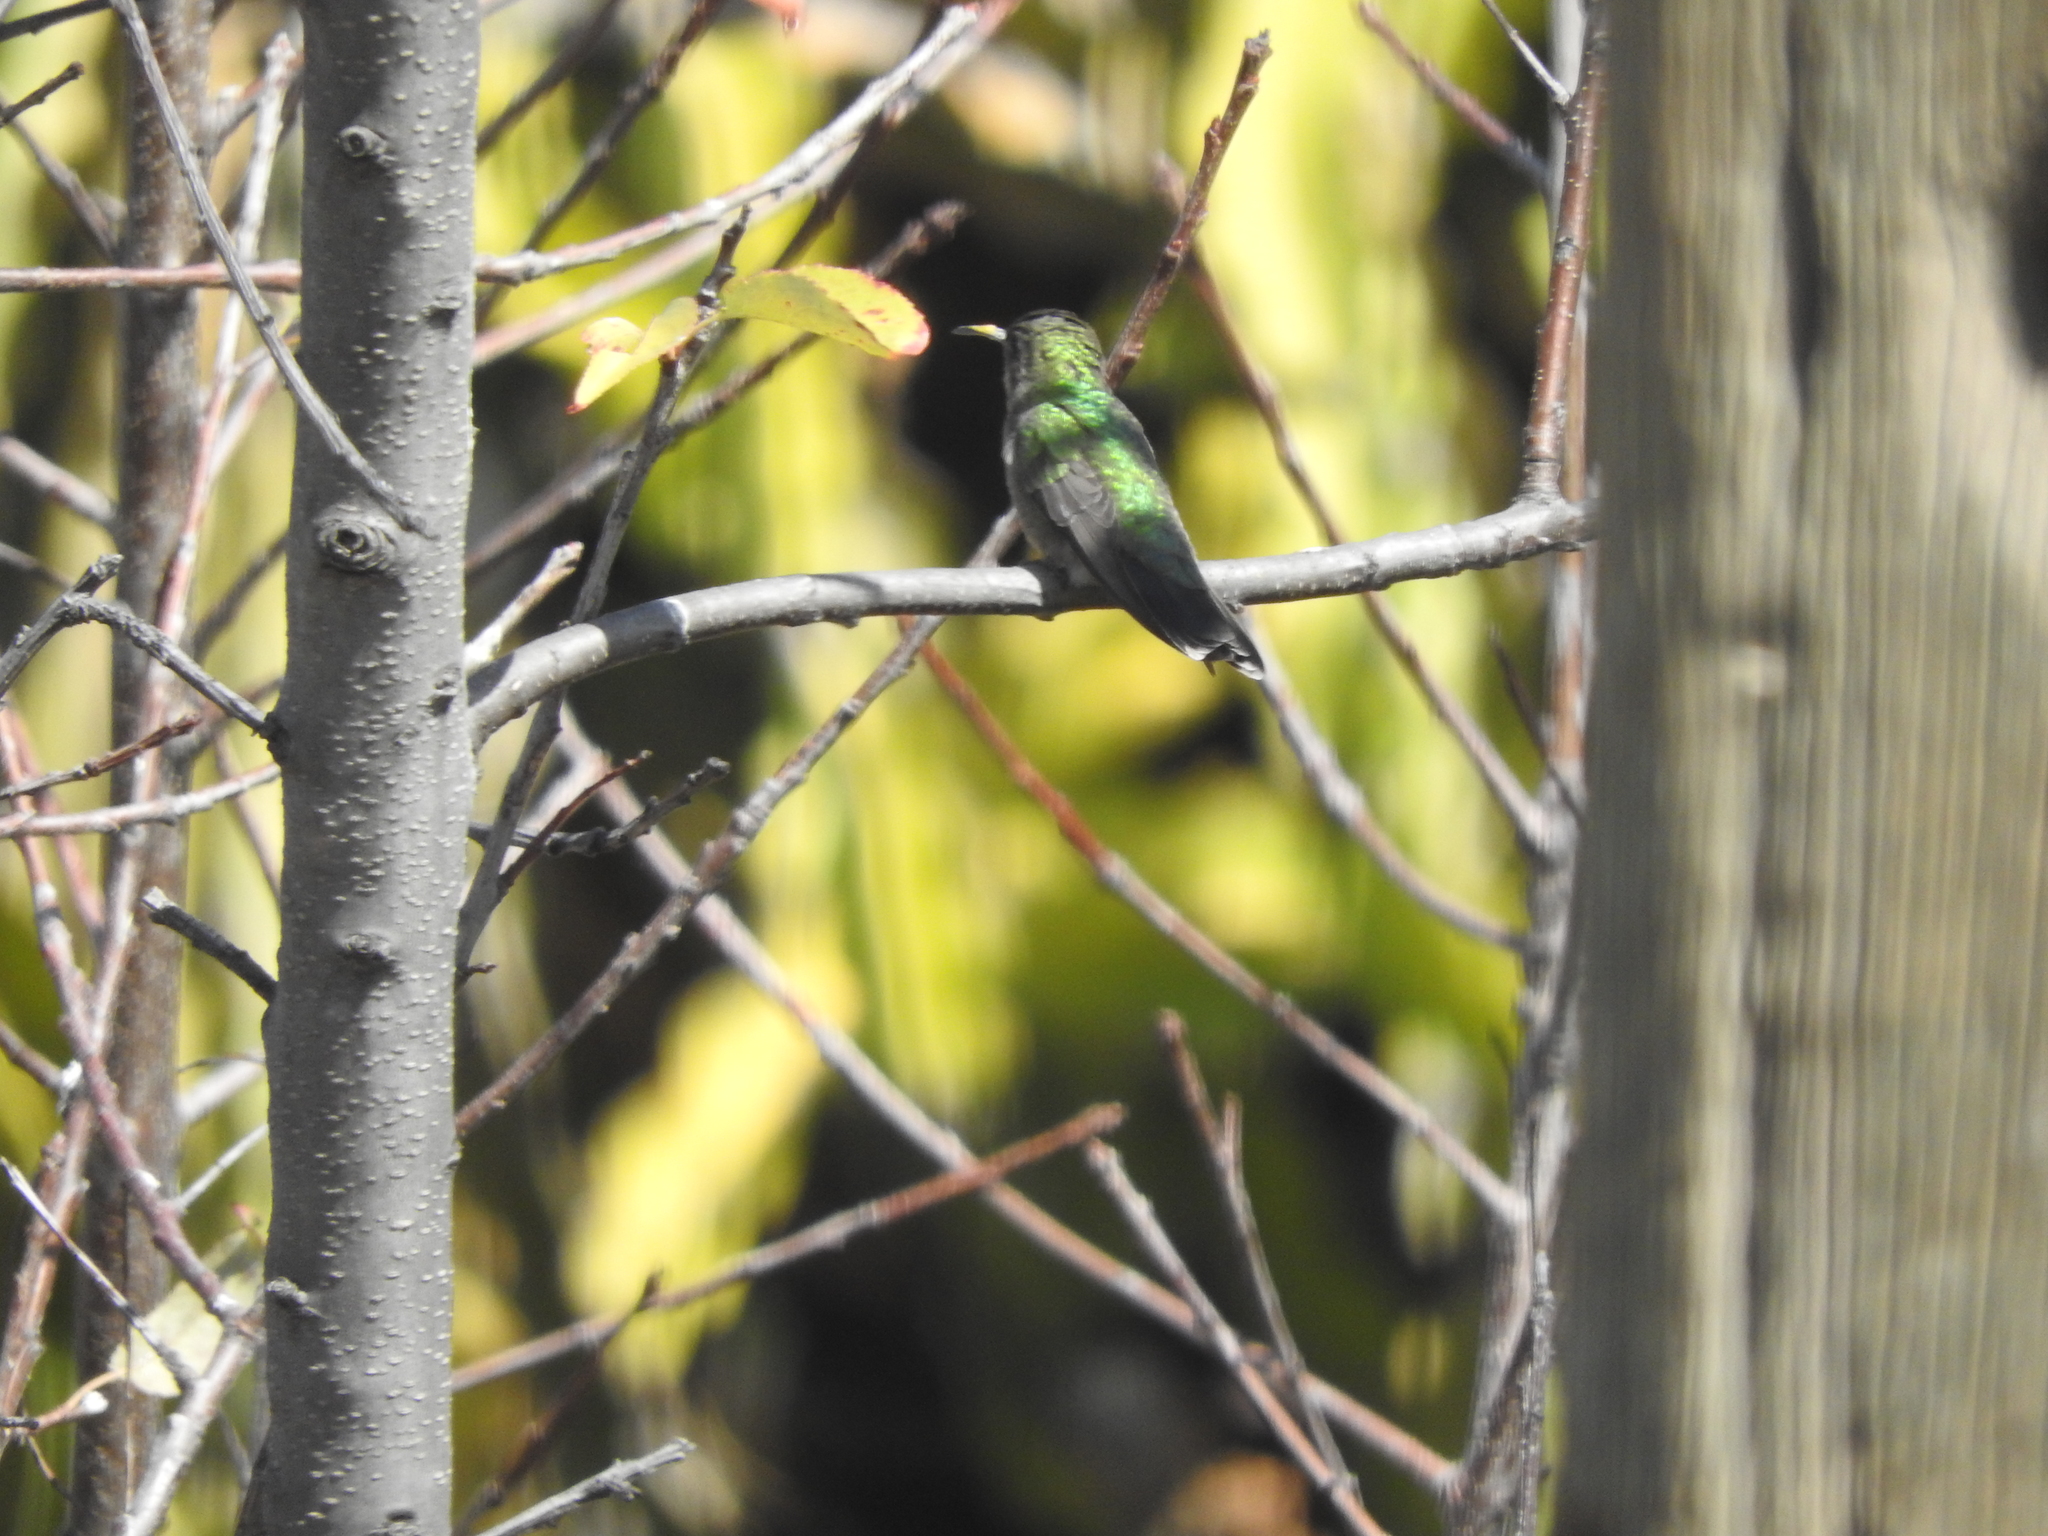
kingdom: Animalia
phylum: Chordata
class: Aves
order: Apodiformes
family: Trochilidae
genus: Cynanthus
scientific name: Cynanthus latirostris
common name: Broad-billed hummingbird
